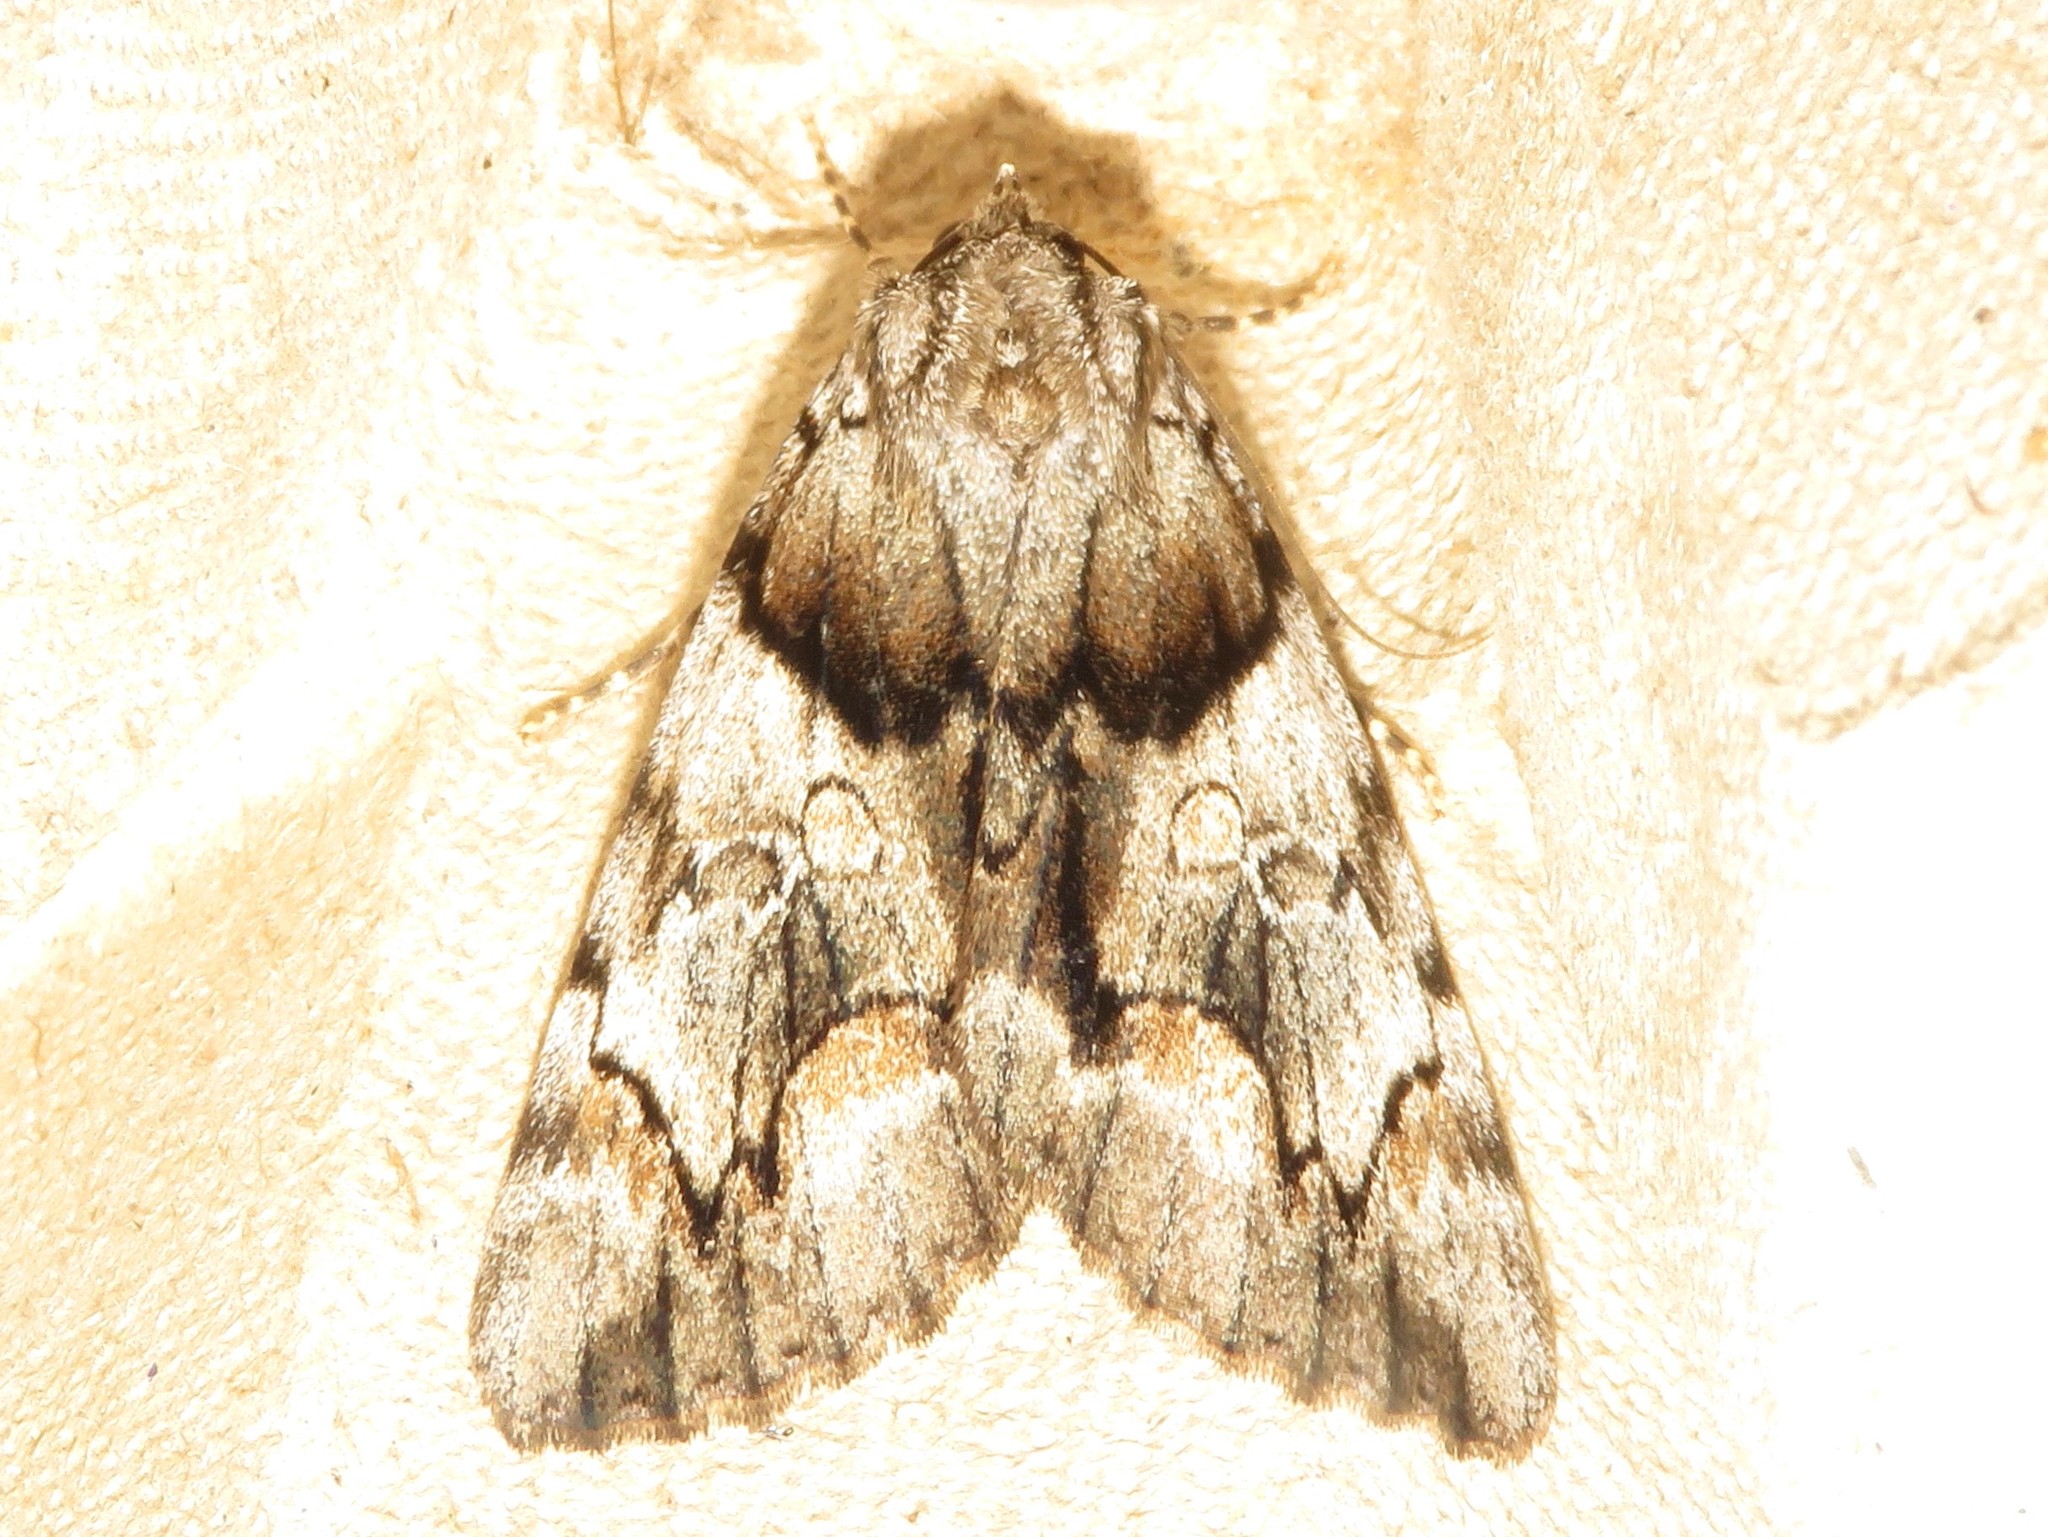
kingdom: Animalia
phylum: Arthropoda
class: Insecta
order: Lepidoptera
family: Erebidae
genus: Catocala
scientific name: Catocala blandula
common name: Charming underwing
